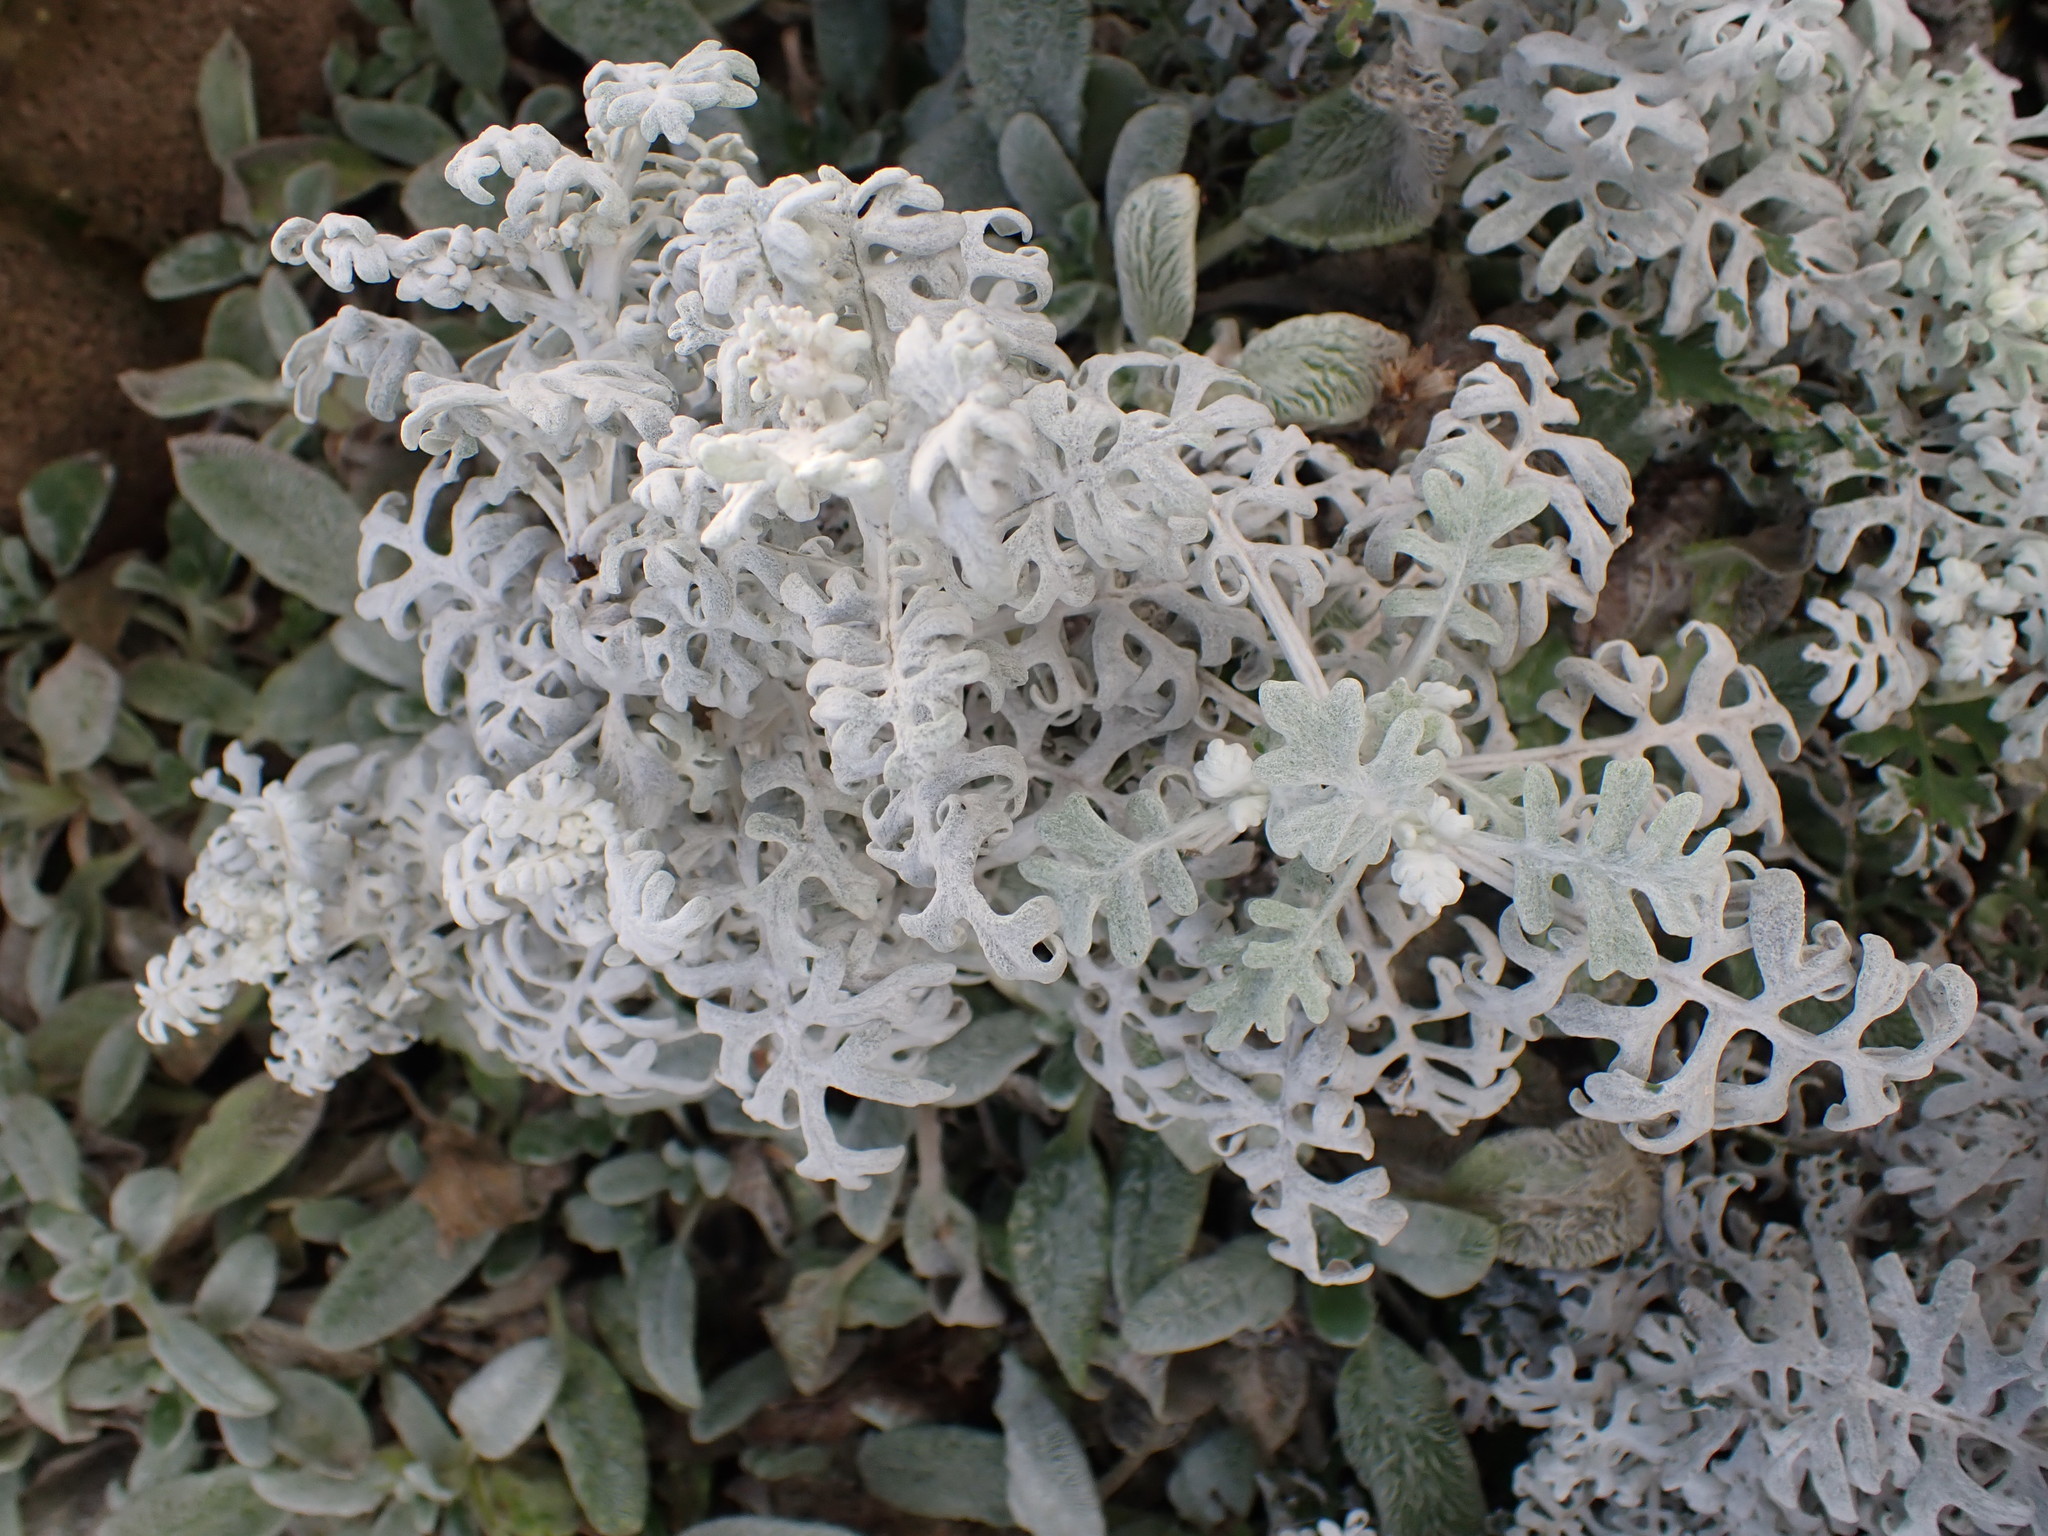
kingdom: Plantae
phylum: Tracheophyta
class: Magnoliopsida
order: Asterales
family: Asteraceae
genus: Jacobaea
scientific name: Jacobaea maritima
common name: Silver ragwort
